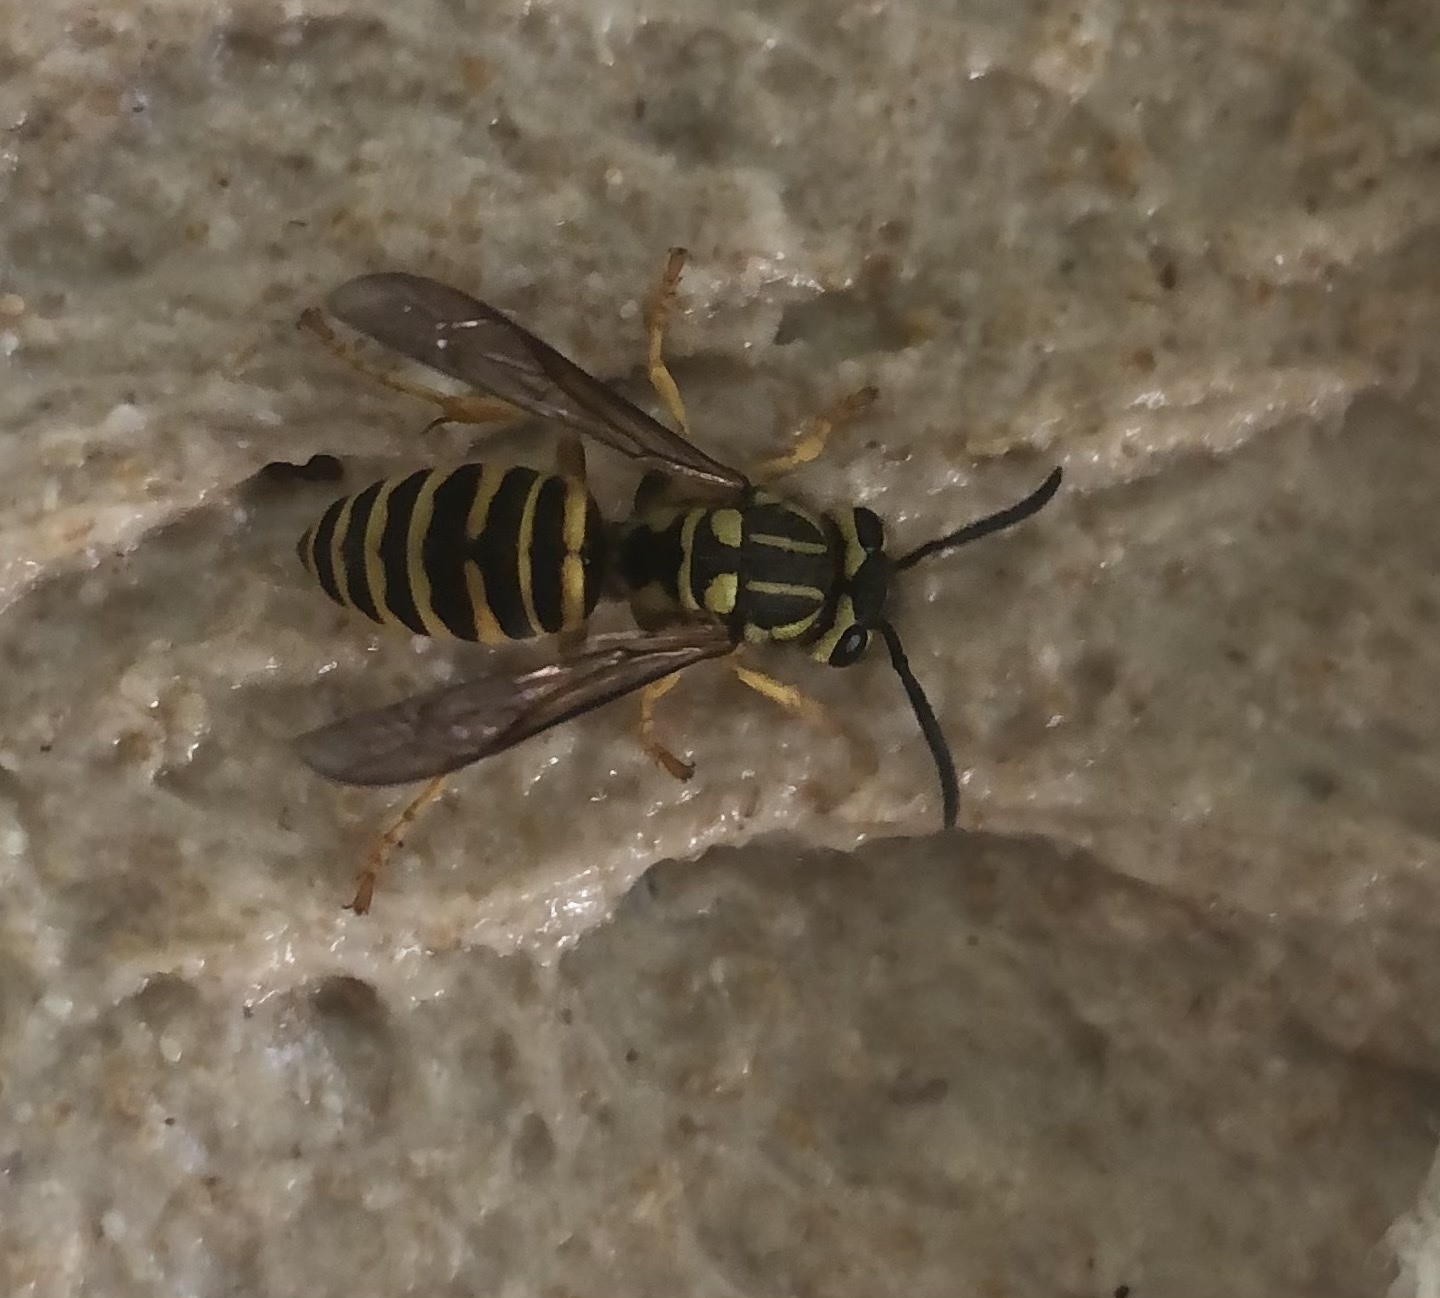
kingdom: Animalia
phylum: Arthropoda
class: Insecta
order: Hymenoptera
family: Vespidae
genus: Vespula
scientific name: Vespula squamosa
